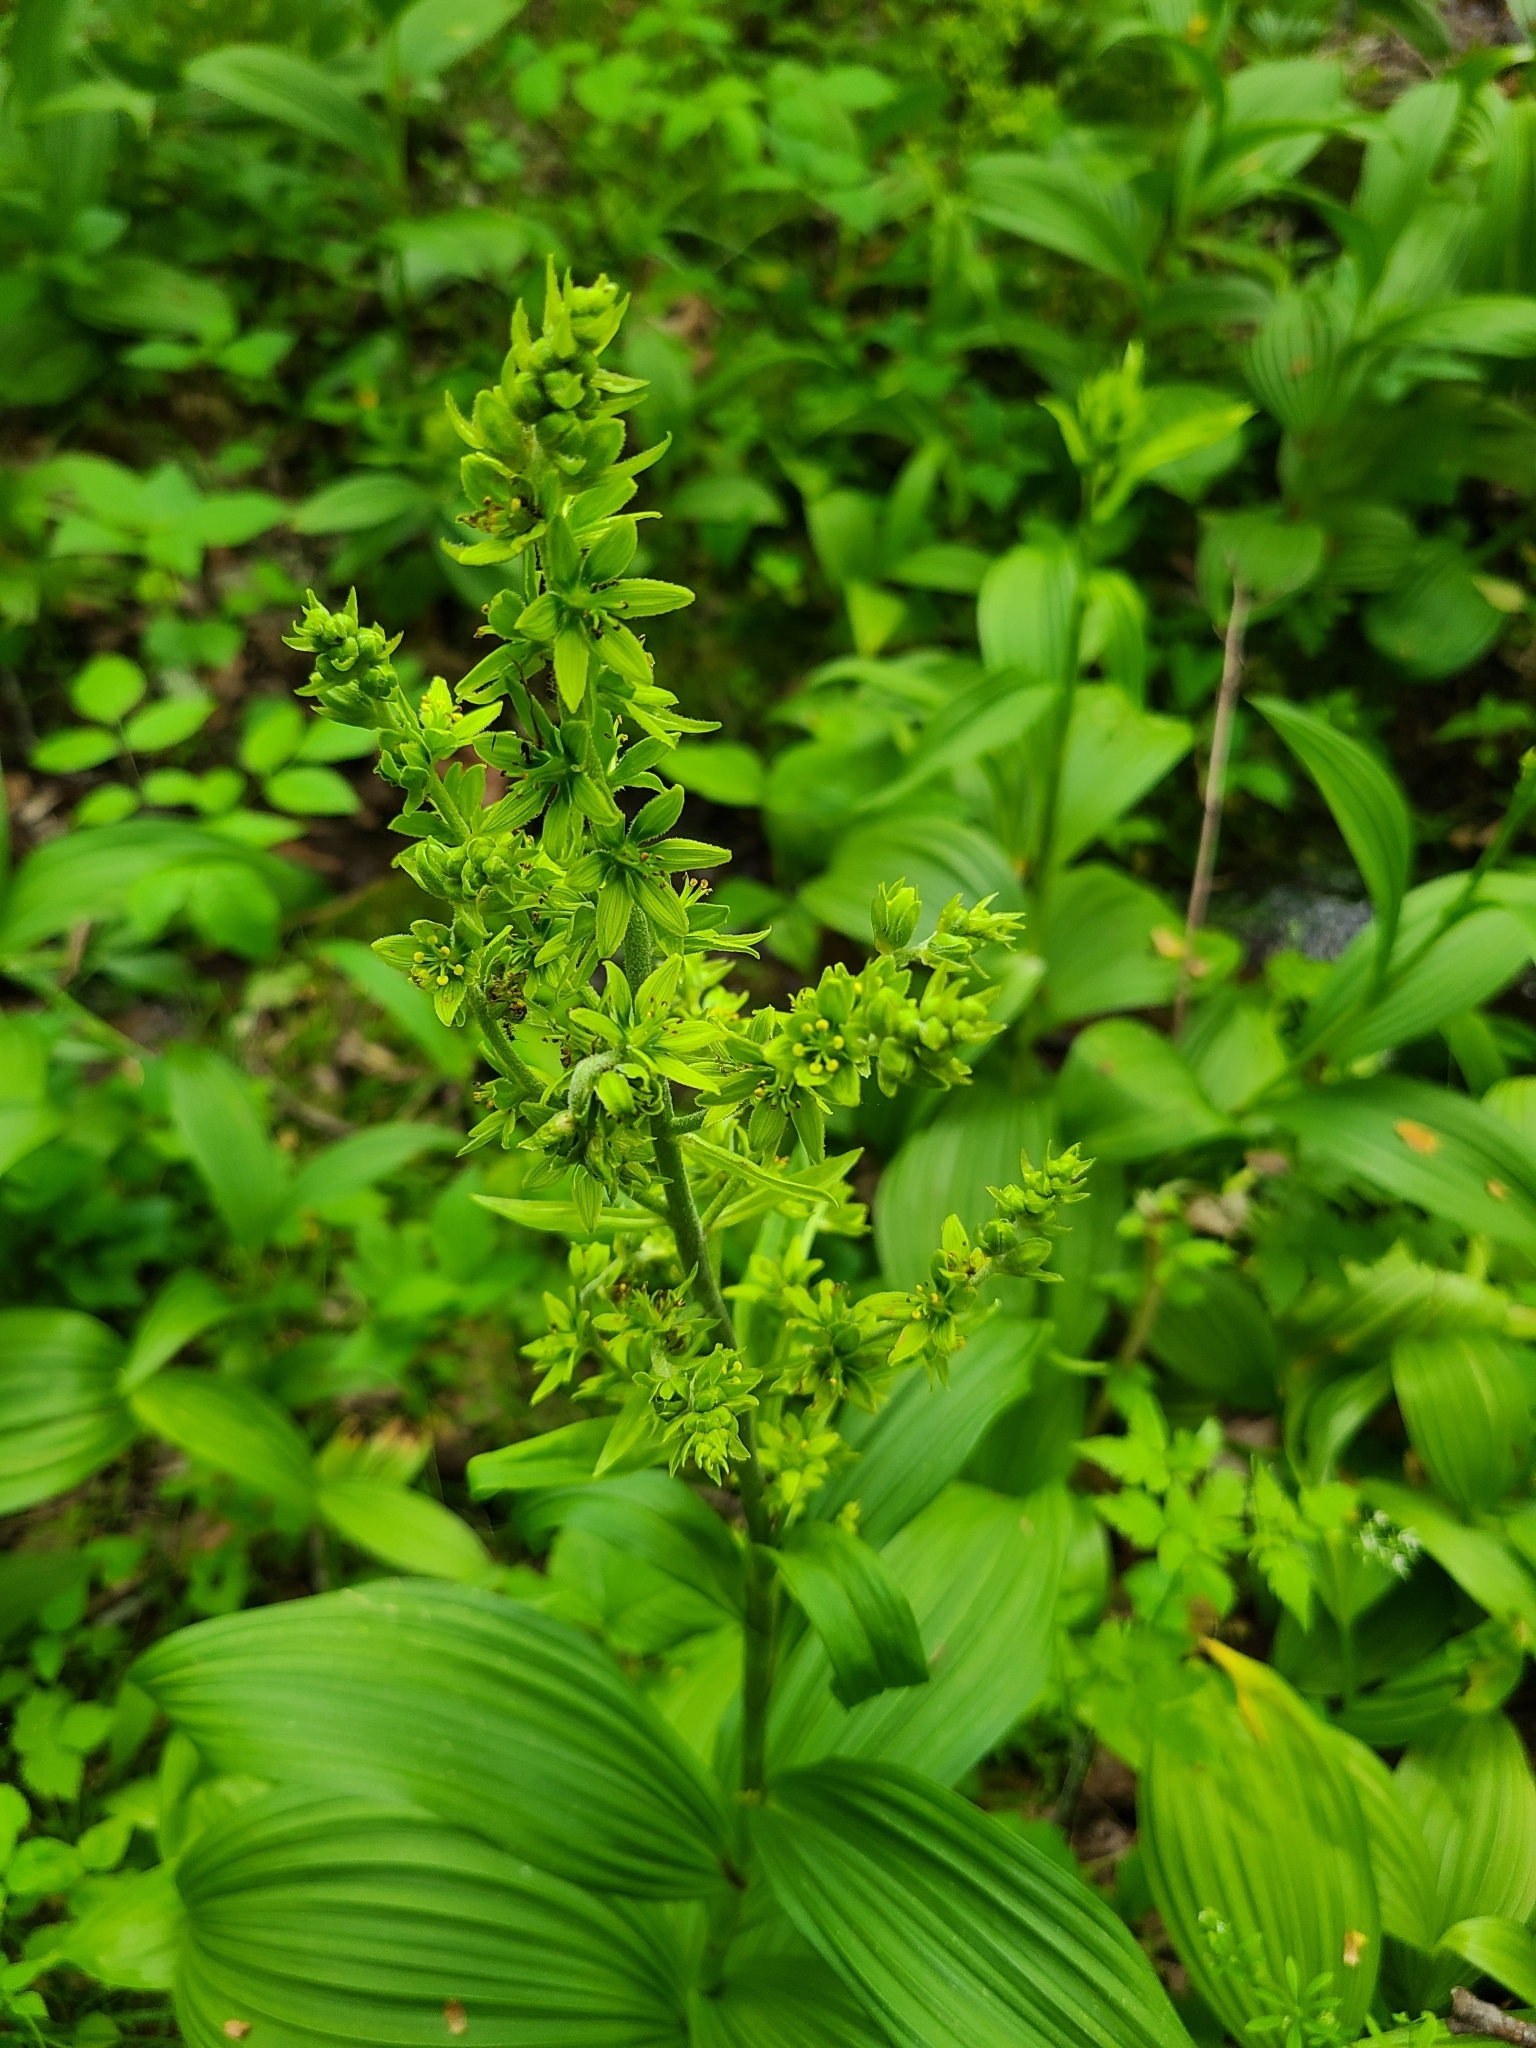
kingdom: Plantae
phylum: Tracheophyta
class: Liliopsida
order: Liliales
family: Melanthiaceae
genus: Veratrum
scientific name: Veratrum viride
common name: American false hellebore
